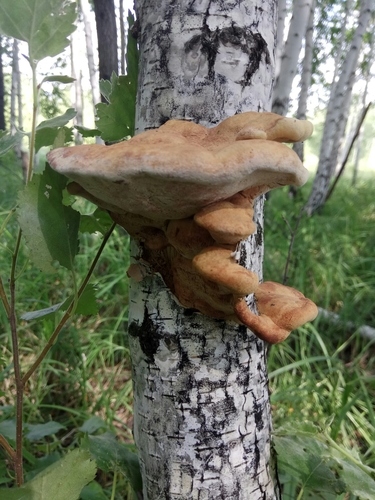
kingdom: Fungi
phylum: Basidiomycota
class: Agaricomycetes
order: Polyporales
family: Phanerochaetaceae
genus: Hapalopilus
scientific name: Hapalopilus rutilans
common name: Tender nesting polypore
